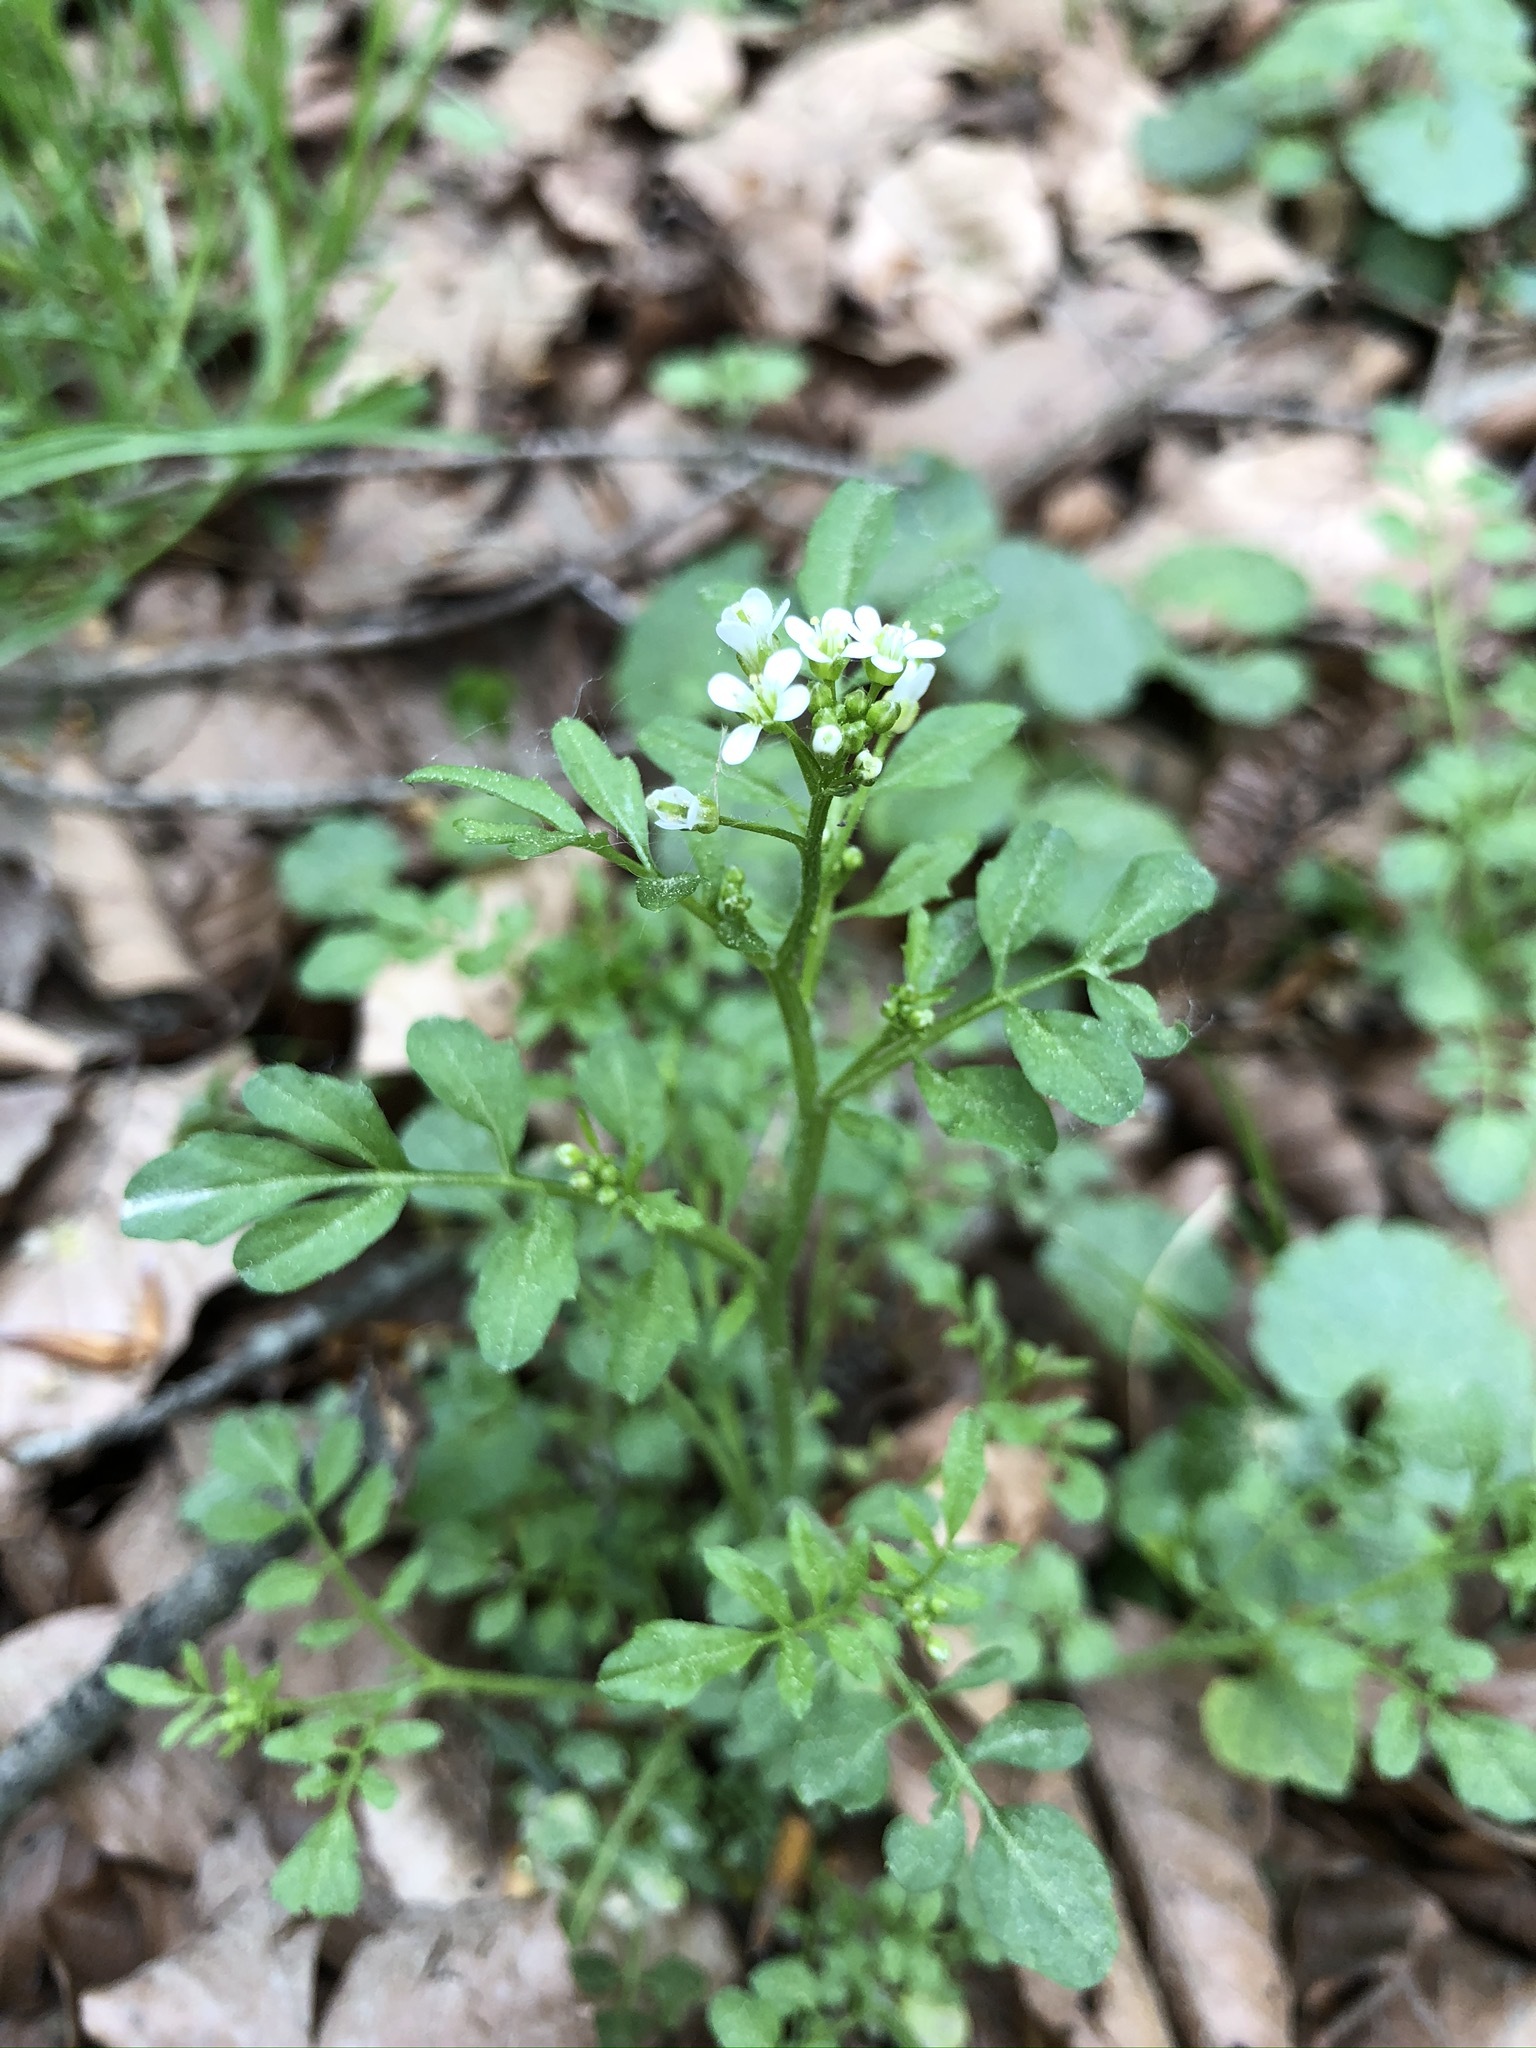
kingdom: Plantae
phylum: Tracheophyta
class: Magnoliopsida
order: Brassicales
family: Brassicaceae
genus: Cardamine
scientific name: Cardamine flexuosa
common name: Woodland bittercress
